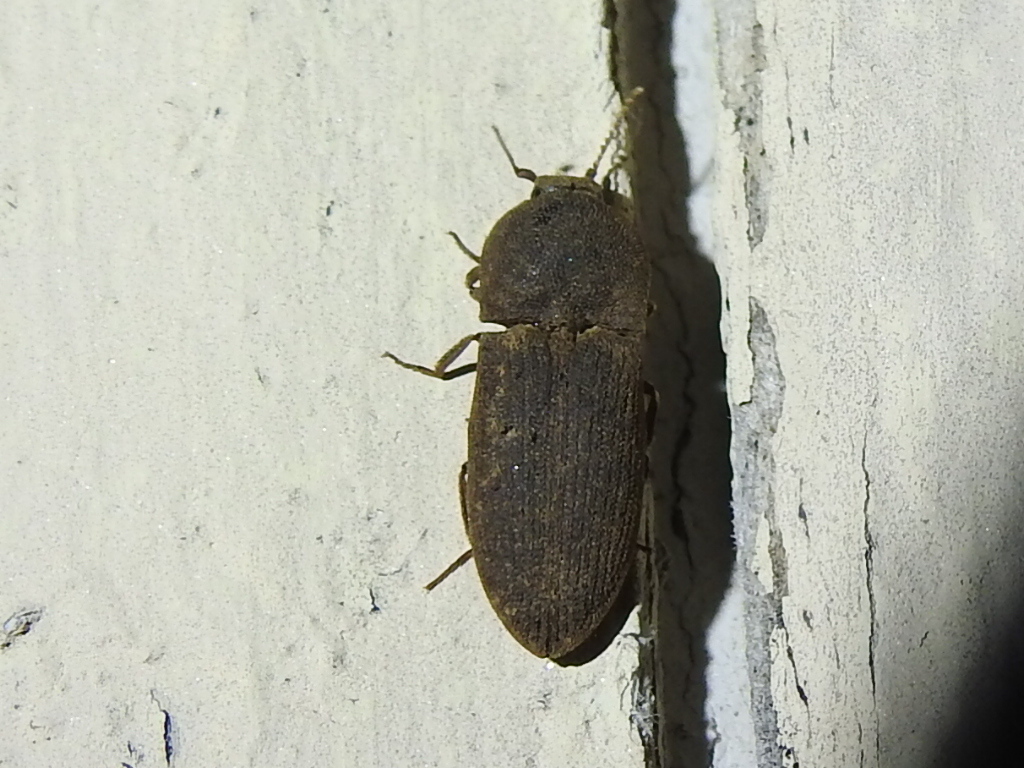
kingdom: Animalia
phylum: Arthropoda
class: Insecta
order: Coleoptera
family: Elateridae
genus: Agrypnus
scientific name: Agrypnus rectangularis
